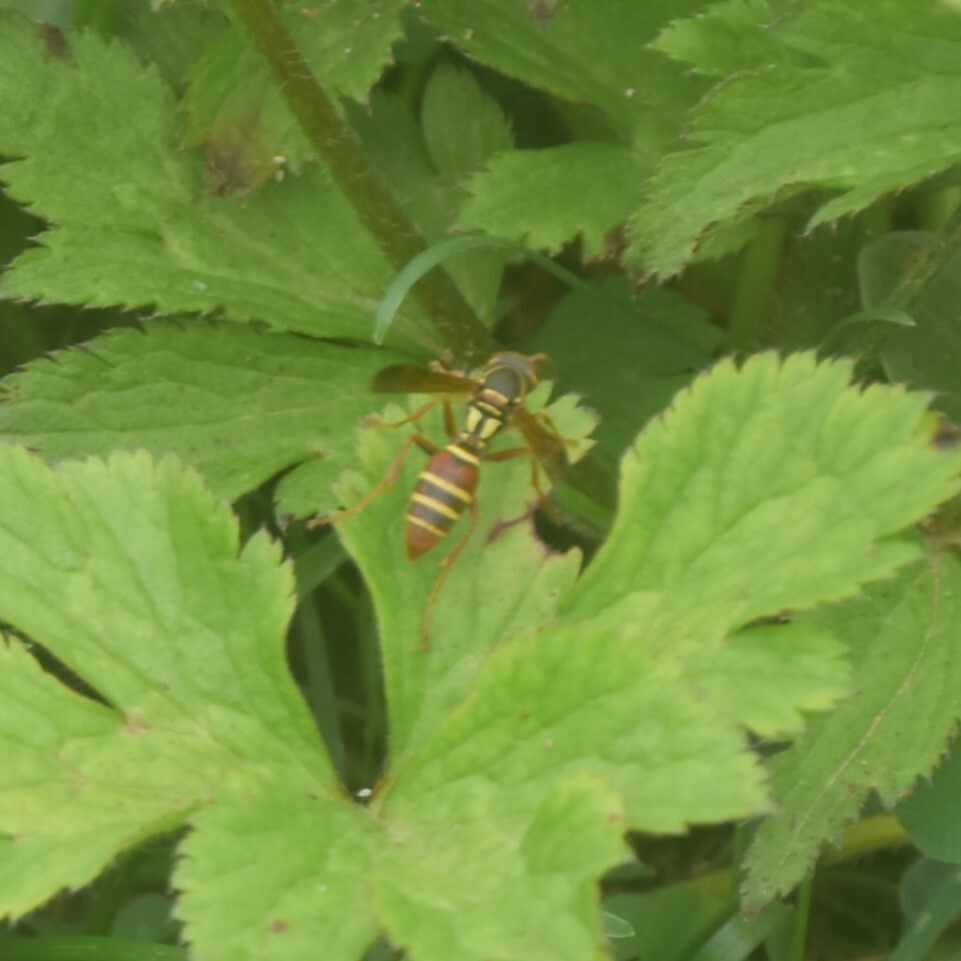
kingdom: Animalia
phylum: Arthropoda
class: Insecta
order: Hymenoptera
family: Eumenidae
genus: Knemodynerus
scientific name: Knemodynerus multimaculatus
